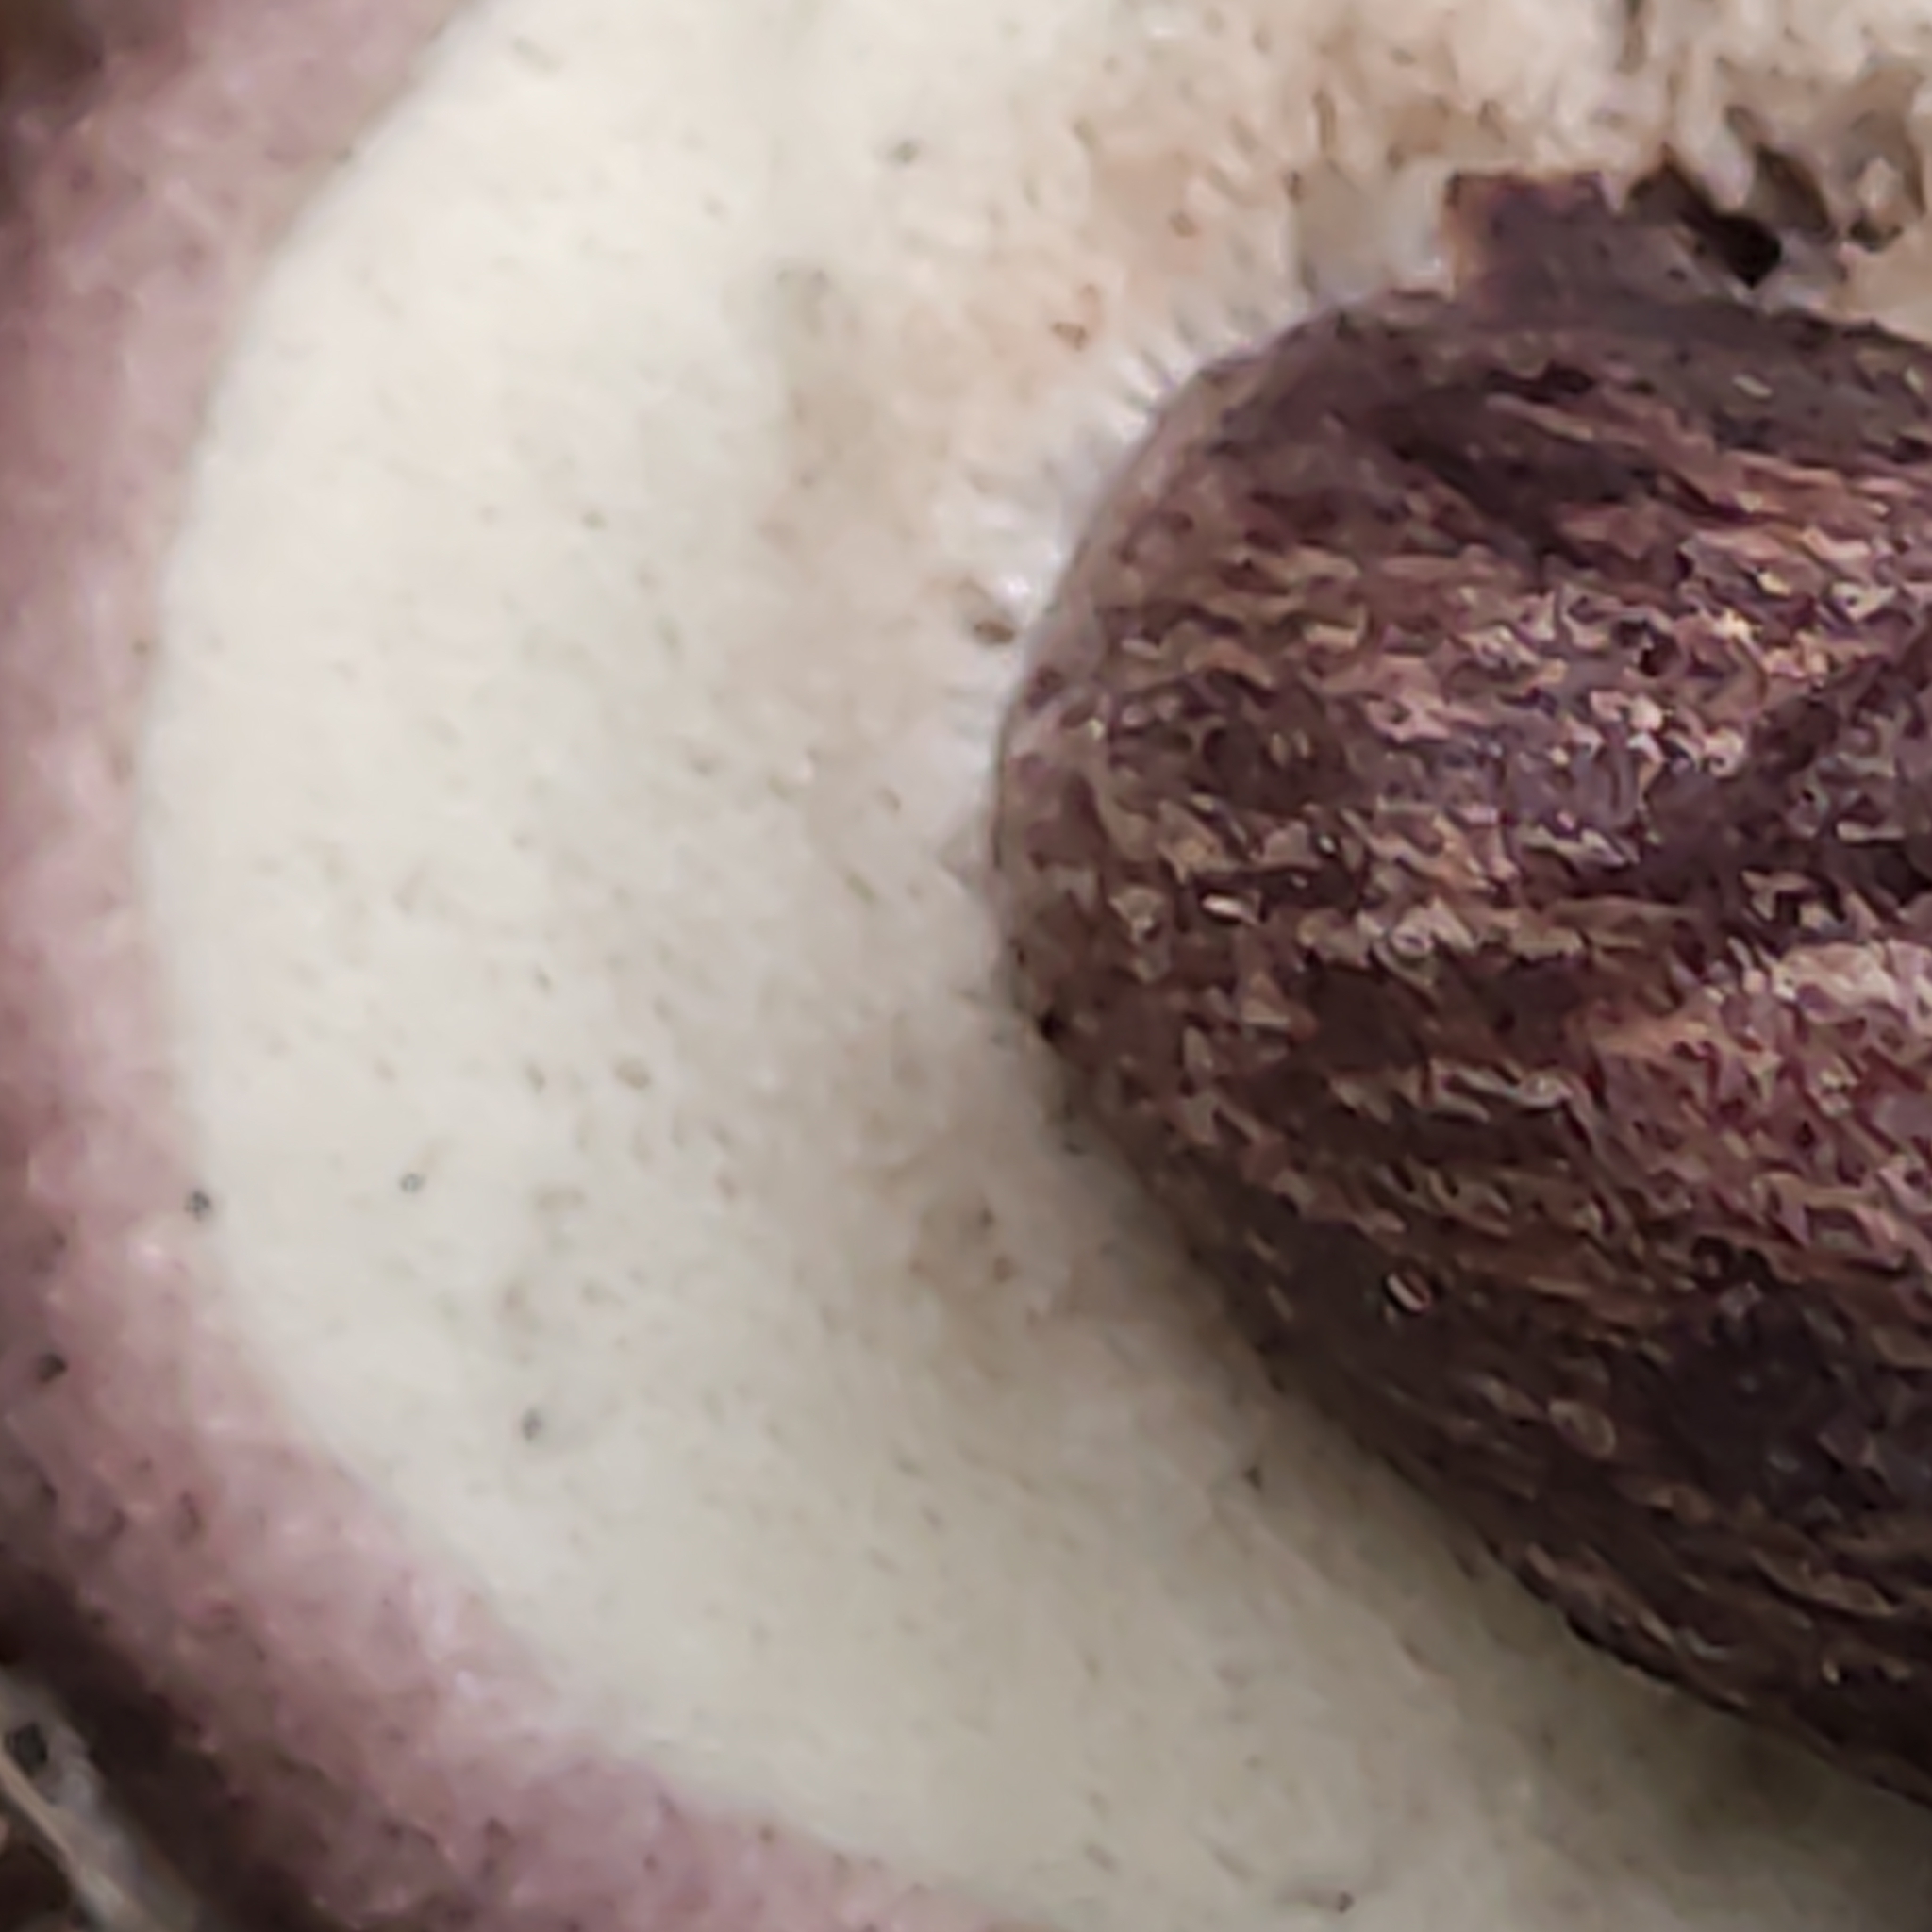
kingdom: Fungi
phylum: Basidiomycota
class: Agaricomycetes
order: Boletales
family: Boletaceae
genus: Porphyrellus
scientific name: Porphyrellus formosus
